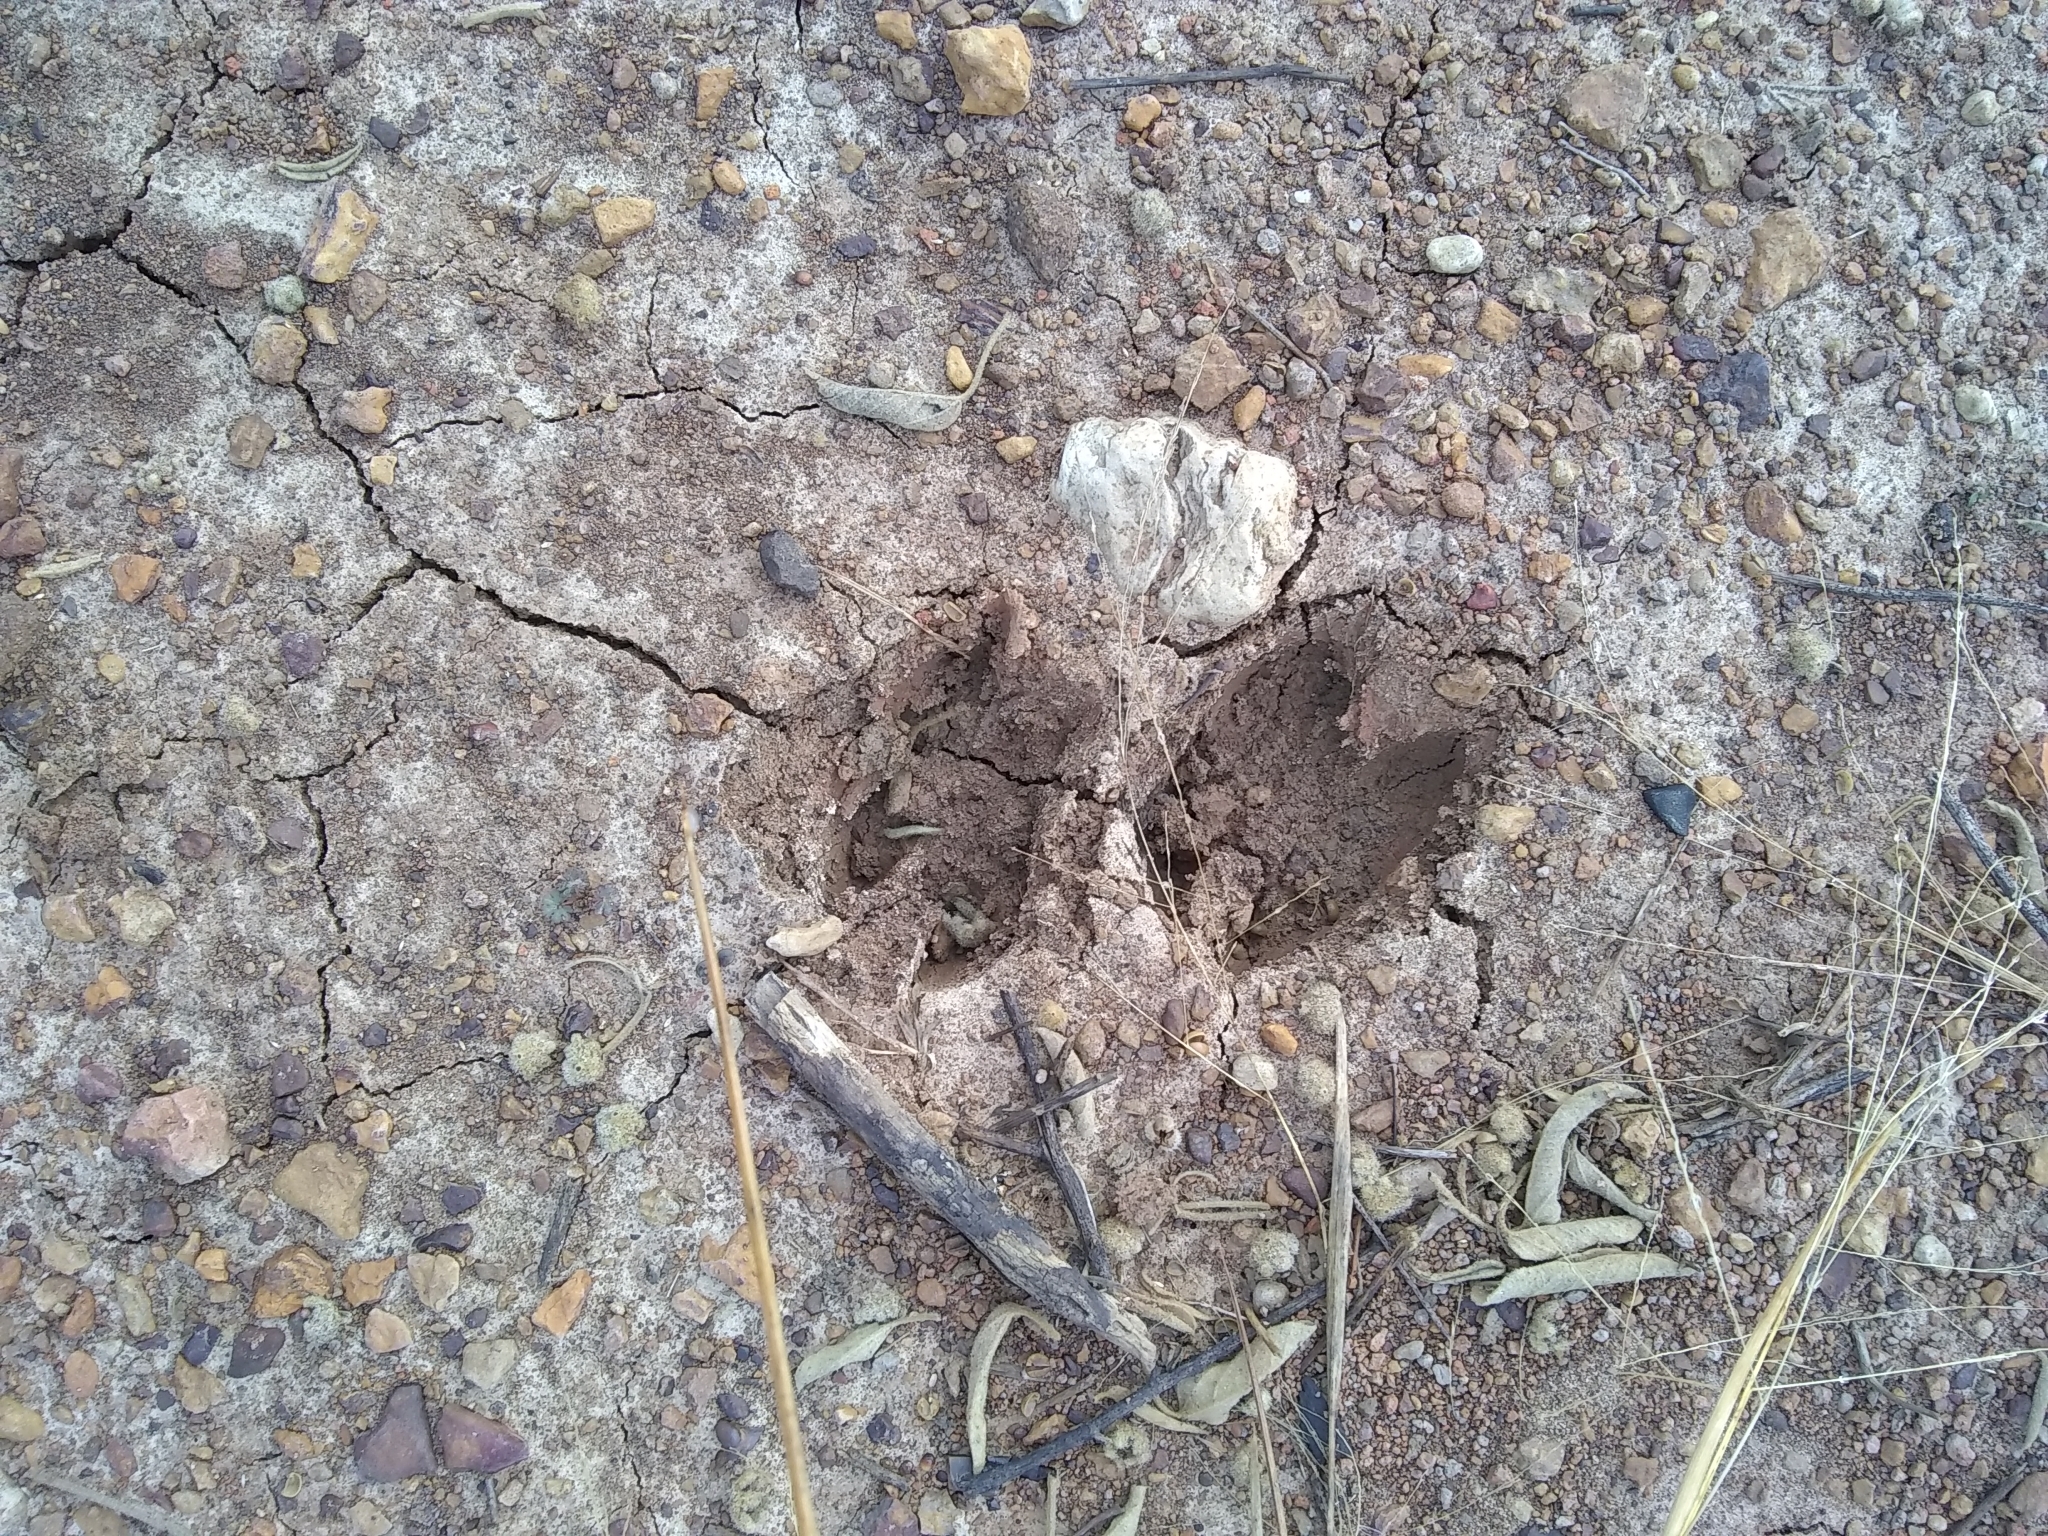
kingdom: Animalia
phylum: Chordata
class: Mammalia
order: Artiodactyla
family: Cervidae
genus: Odocoileus
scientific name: Odocoileus virginianus
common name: White-tailed deer
